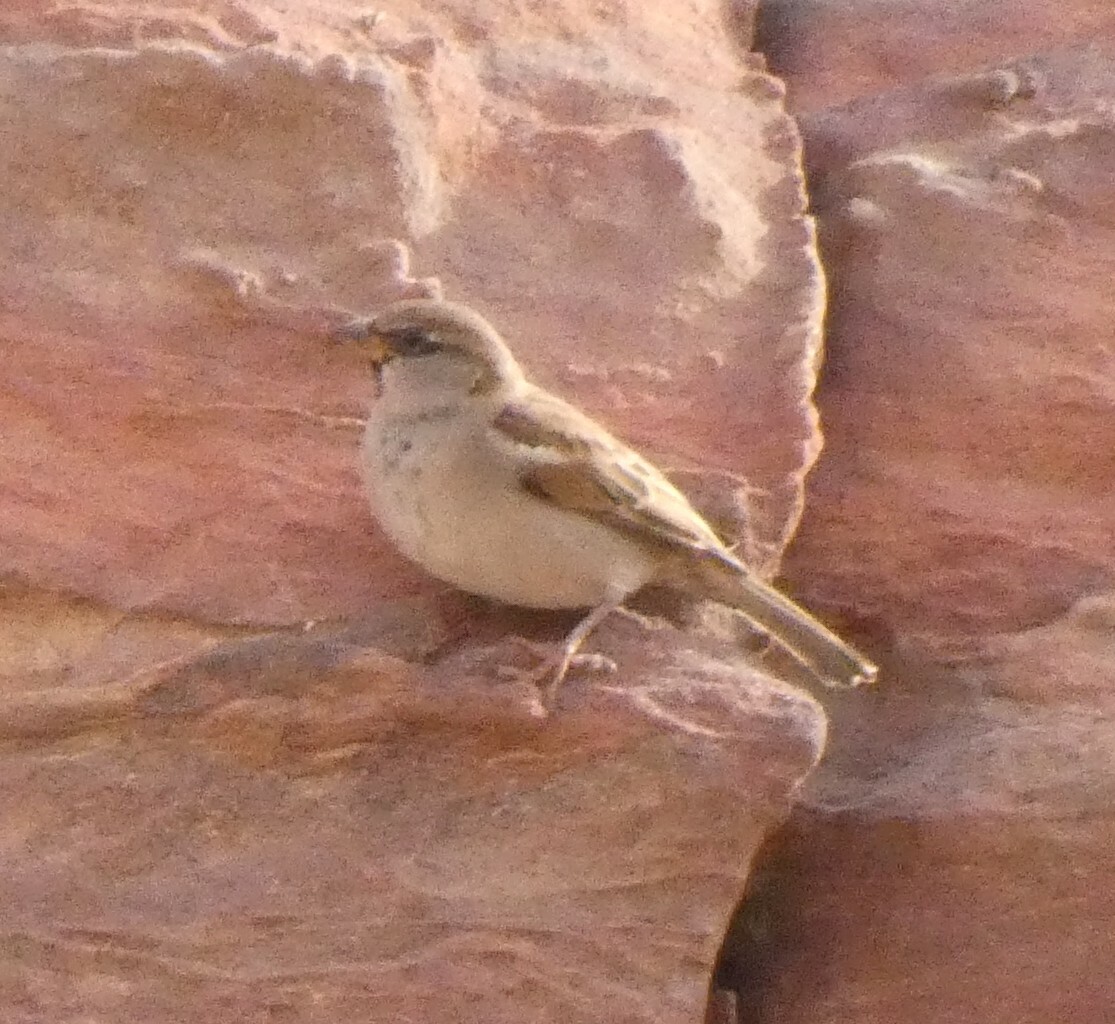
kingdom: Animalia
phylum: Chordata
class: Aves
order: Passeriformes
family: Passeridae
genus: Passer
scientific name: Passer domesticus
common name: House sparrow
